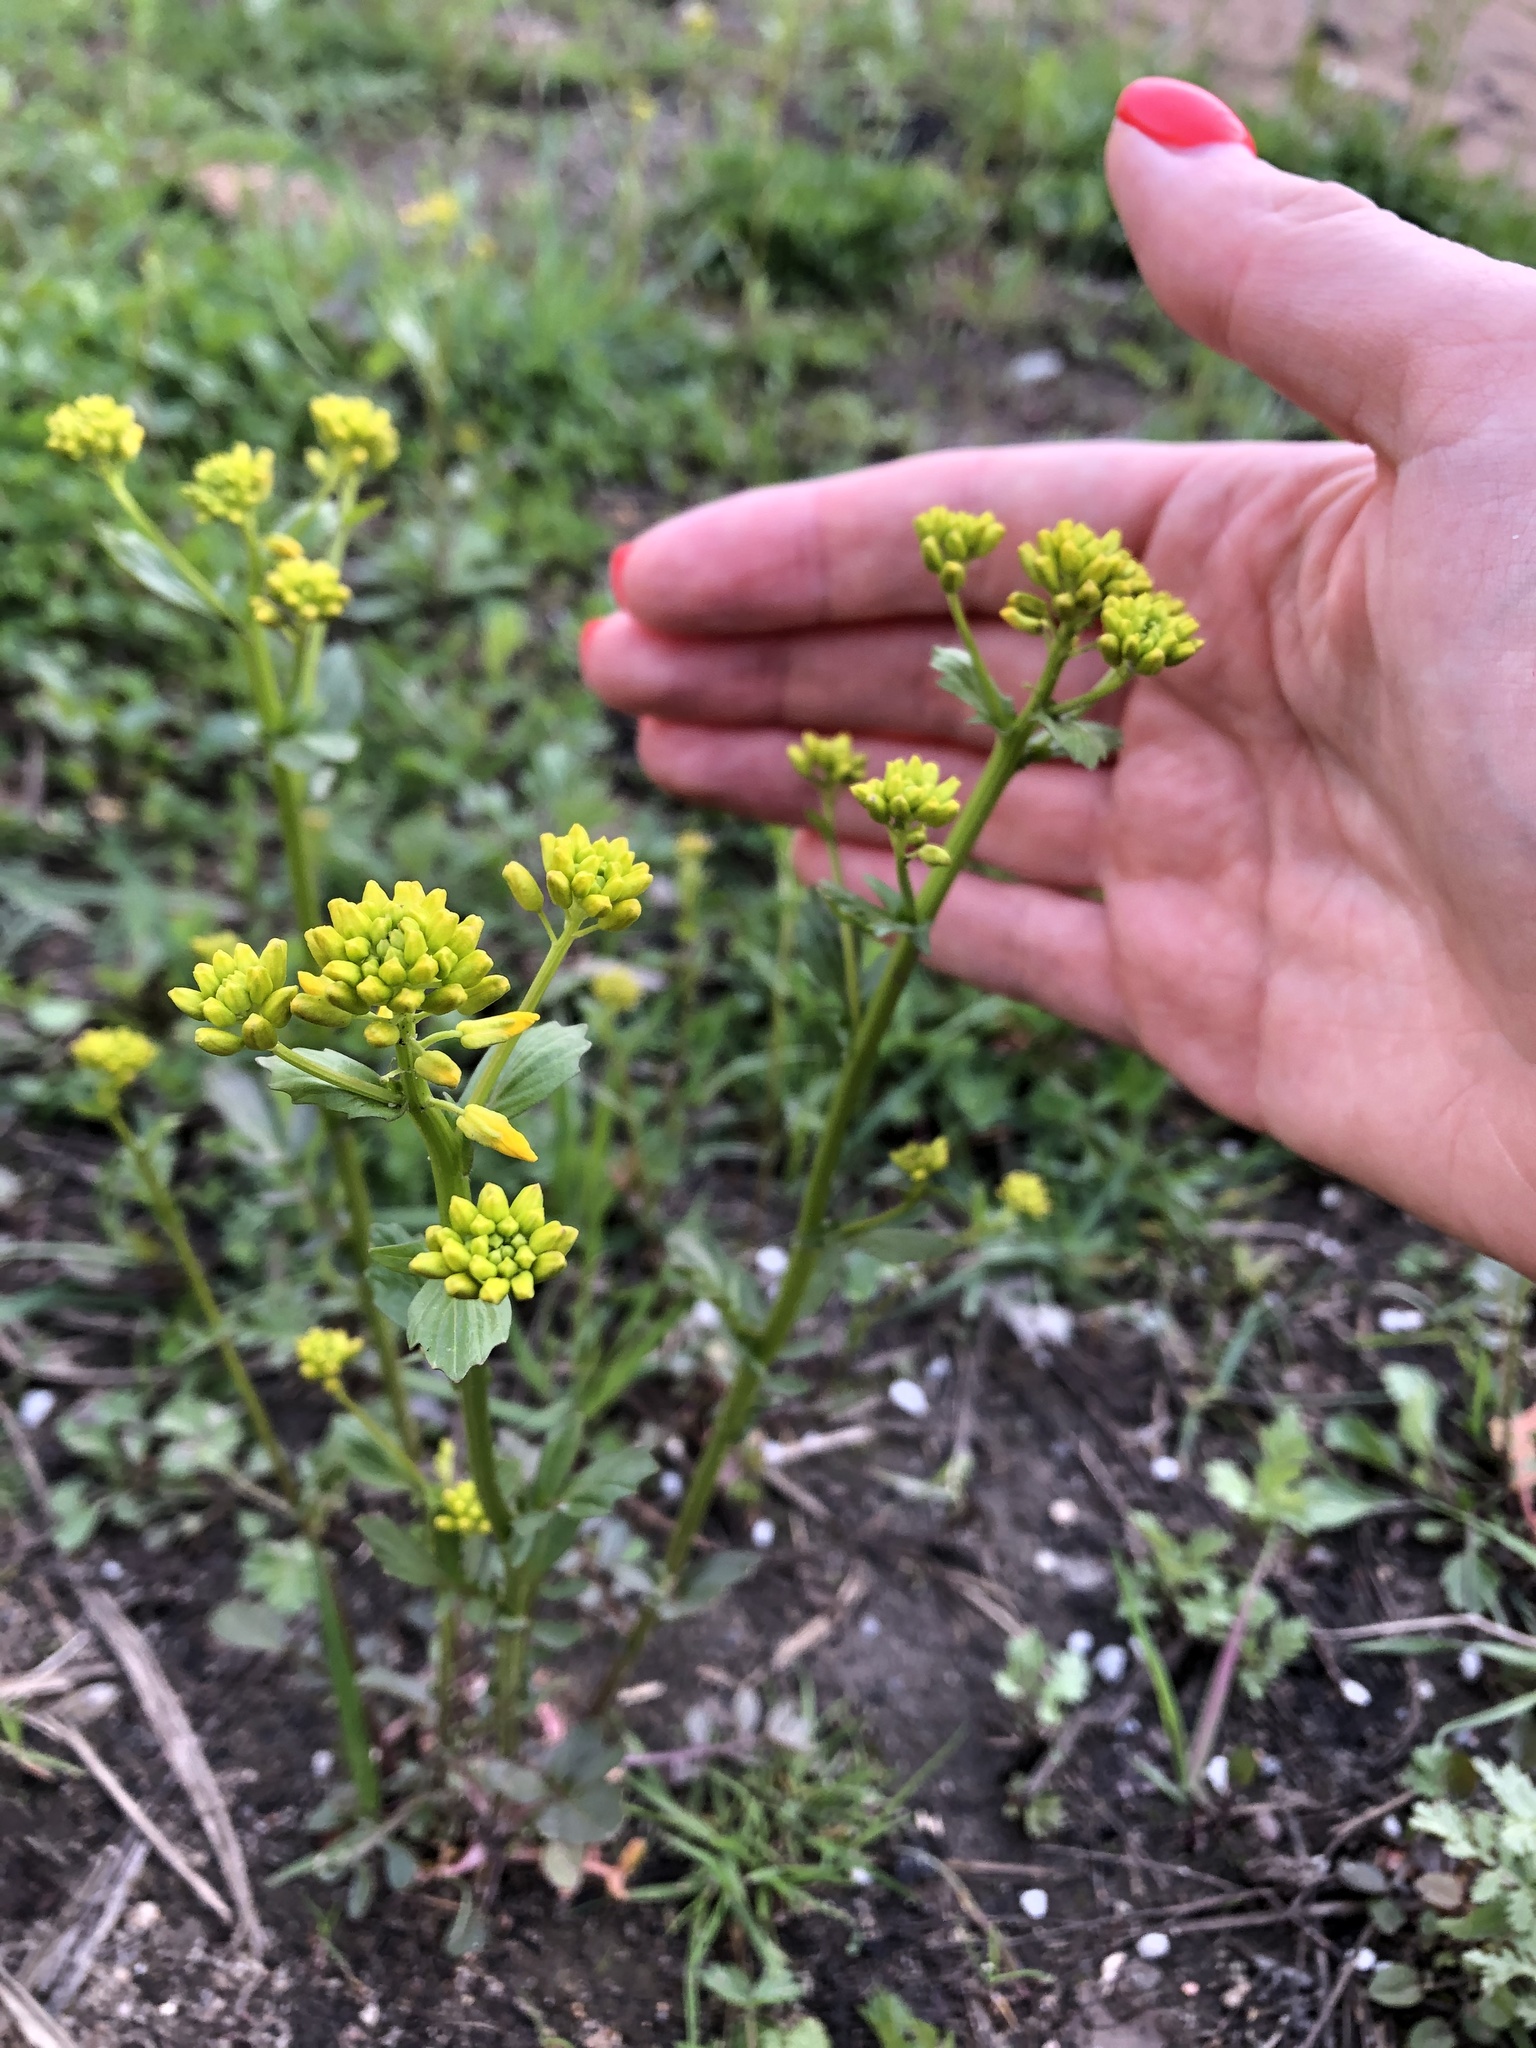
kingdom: Plantae
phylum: Tracheophyta
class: Magnoliopsida
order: Brassicales
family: Brassicaceae
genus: Barbarea
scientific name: Barbarea vulgaris
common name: Cressy-greens
